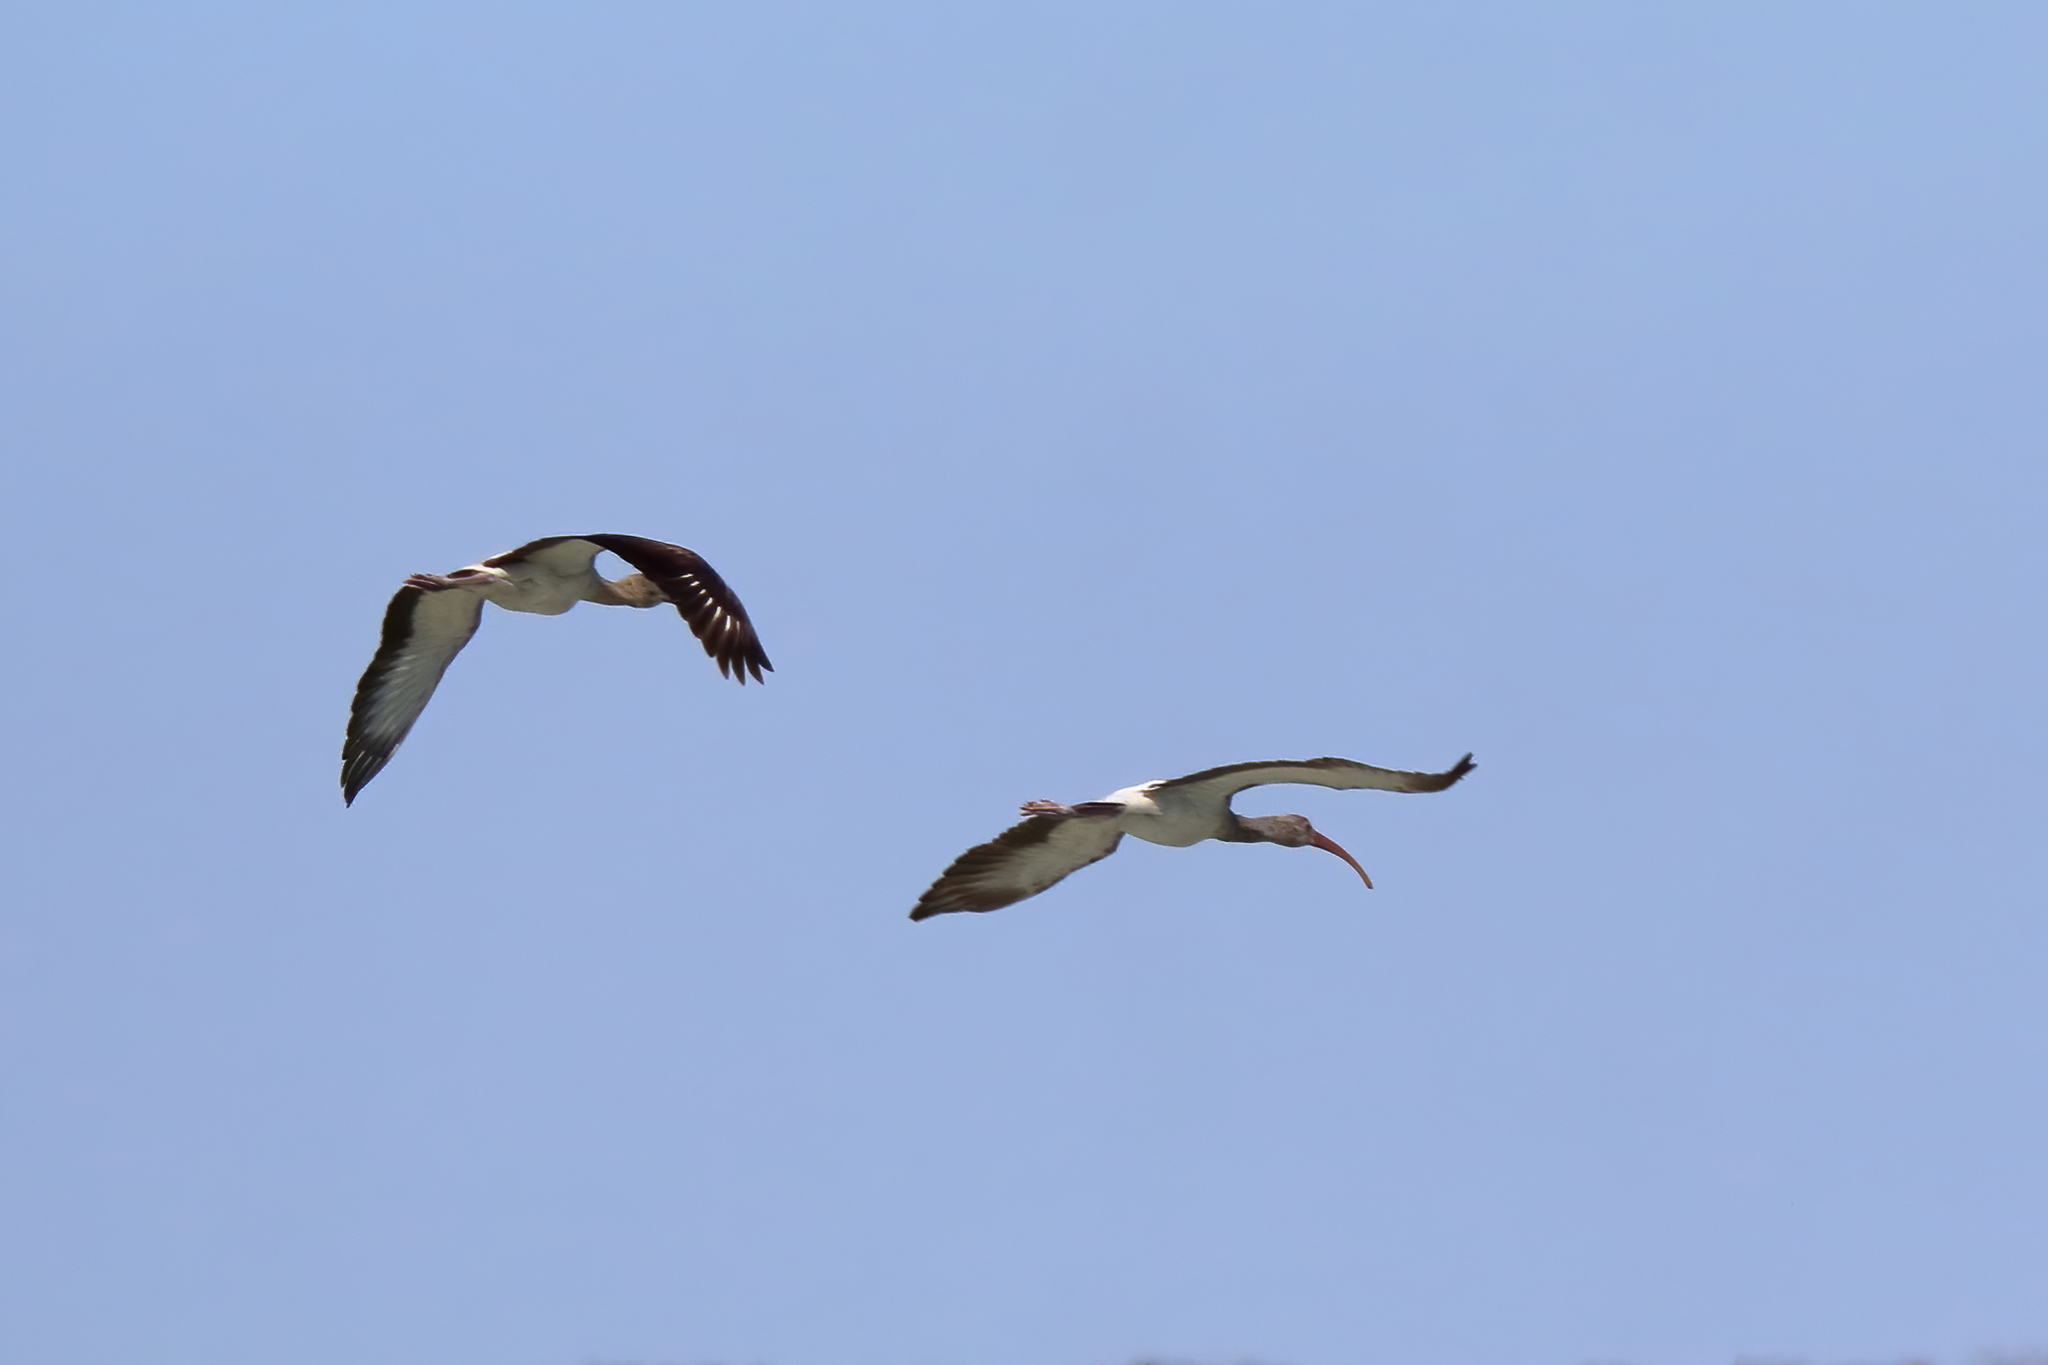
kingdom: Animalia
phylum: Chordata
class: Aves
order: Pelecaniformes
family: Threskiornithidae
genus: Eudocimus
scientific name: Eudocimus albus
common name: White ibis
